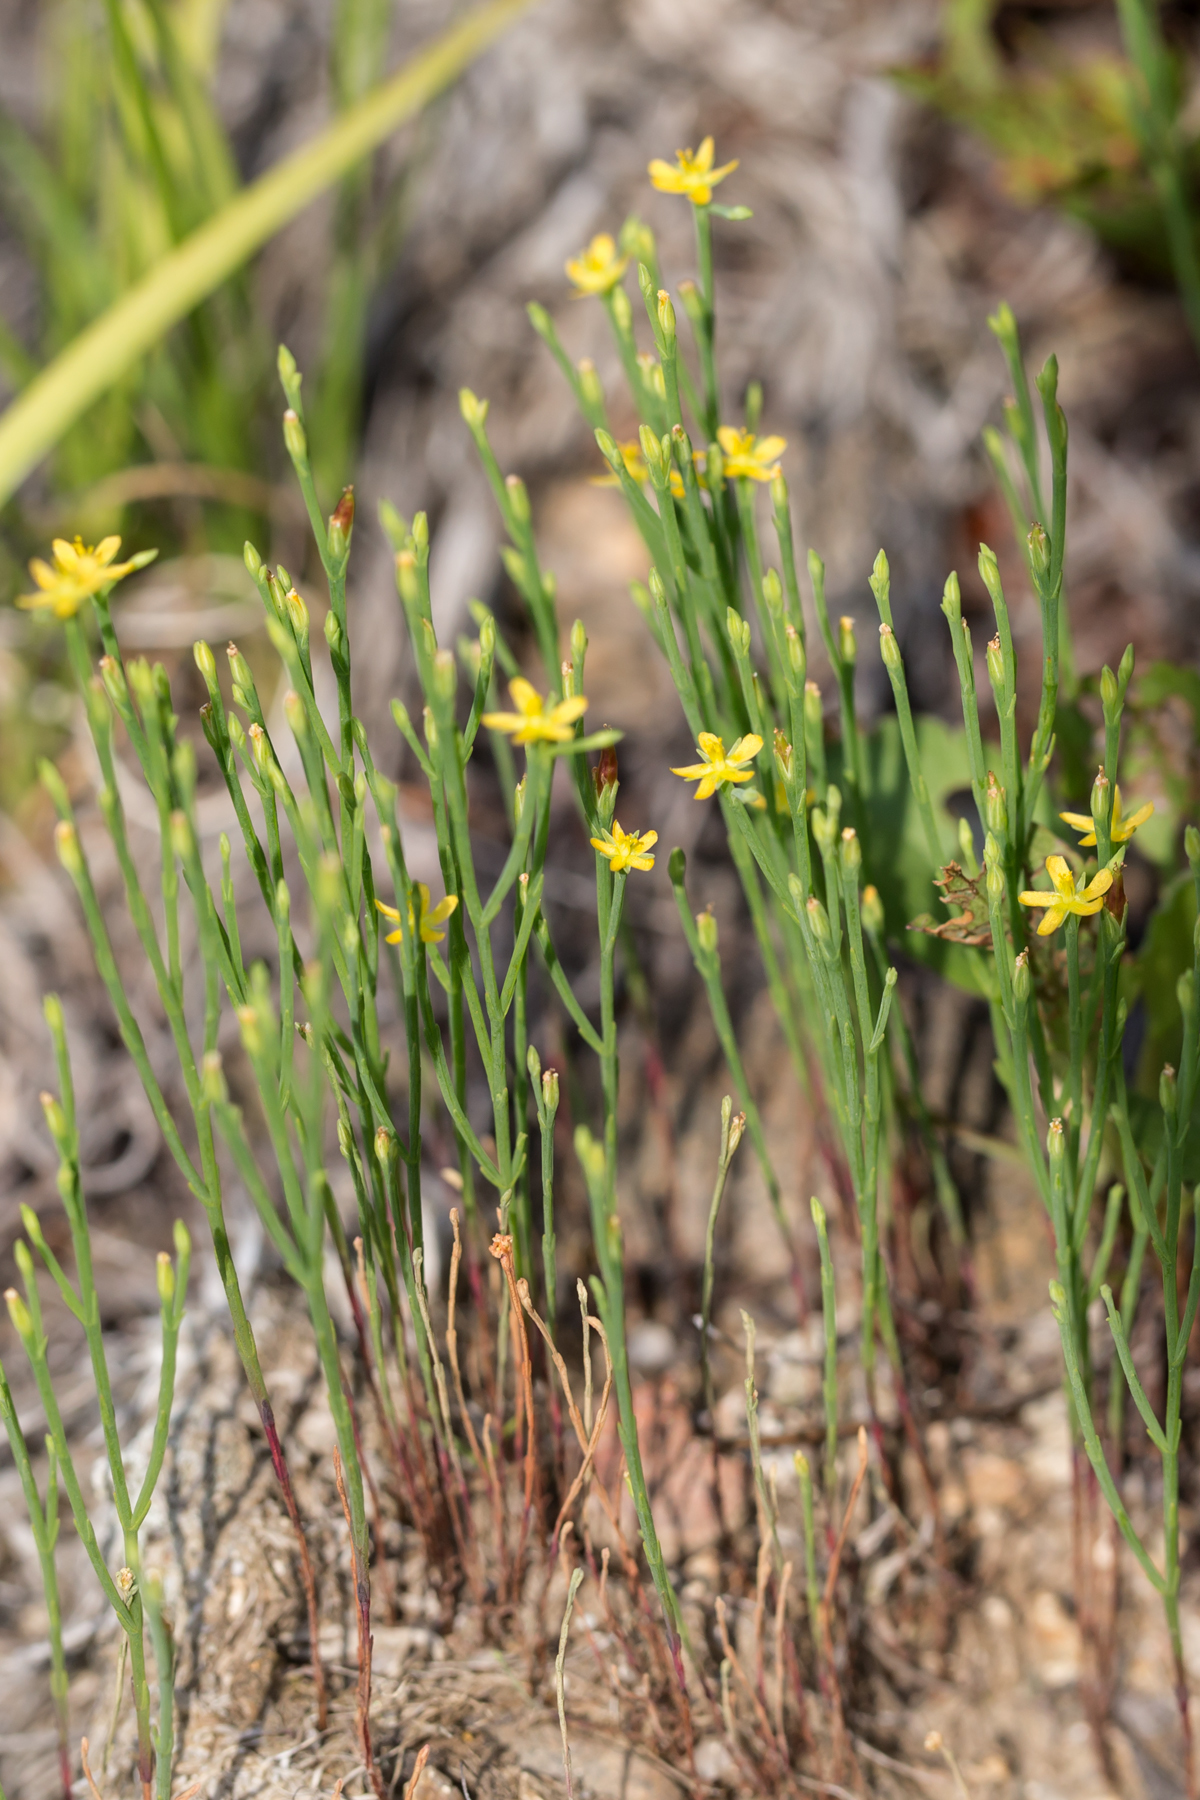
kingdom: Plantae
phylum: Tracheophyta
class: Magnoliopsida
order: Malpighiales
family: Hypericaceae
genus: Hypericum
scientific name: Hypericum gentianoides
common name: Gentian-leaved st. john's-wort
